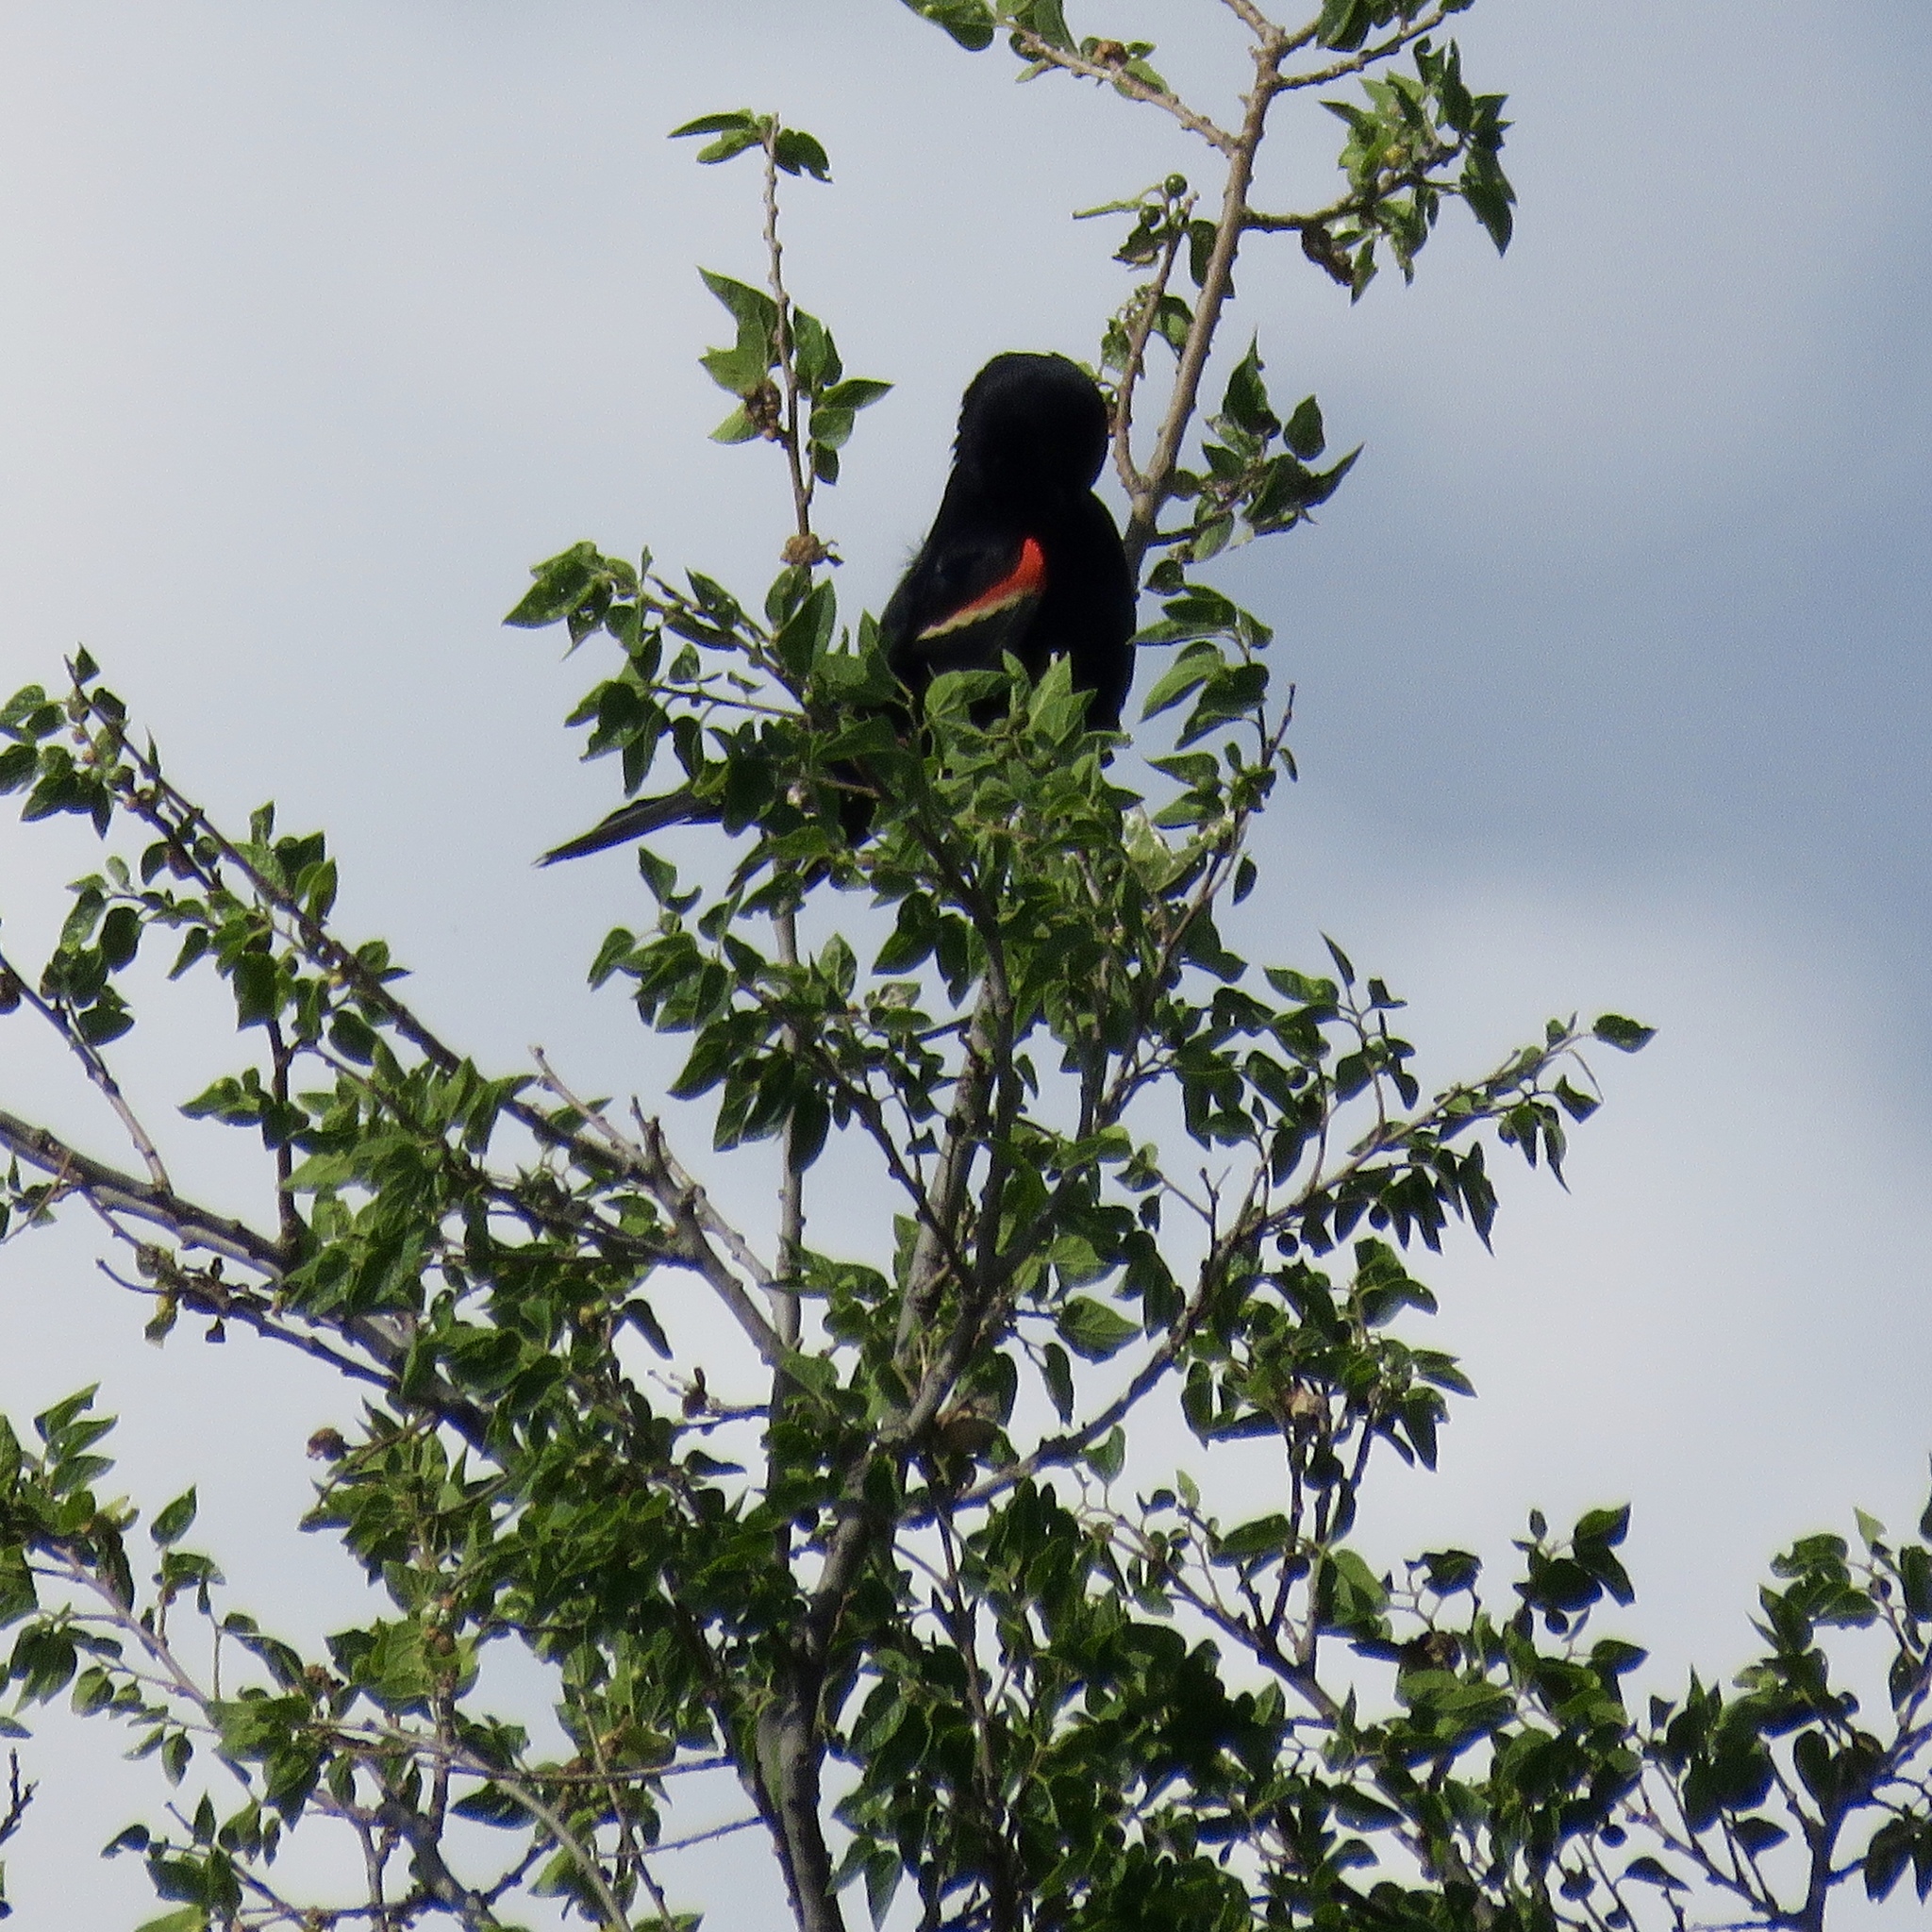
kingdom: Animalia
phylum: Chordata
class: Aves
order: Passeriformes
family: Icteridae
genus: Agelaius
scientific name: Agelaius phoeniceus
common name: Red-winged blackbird
